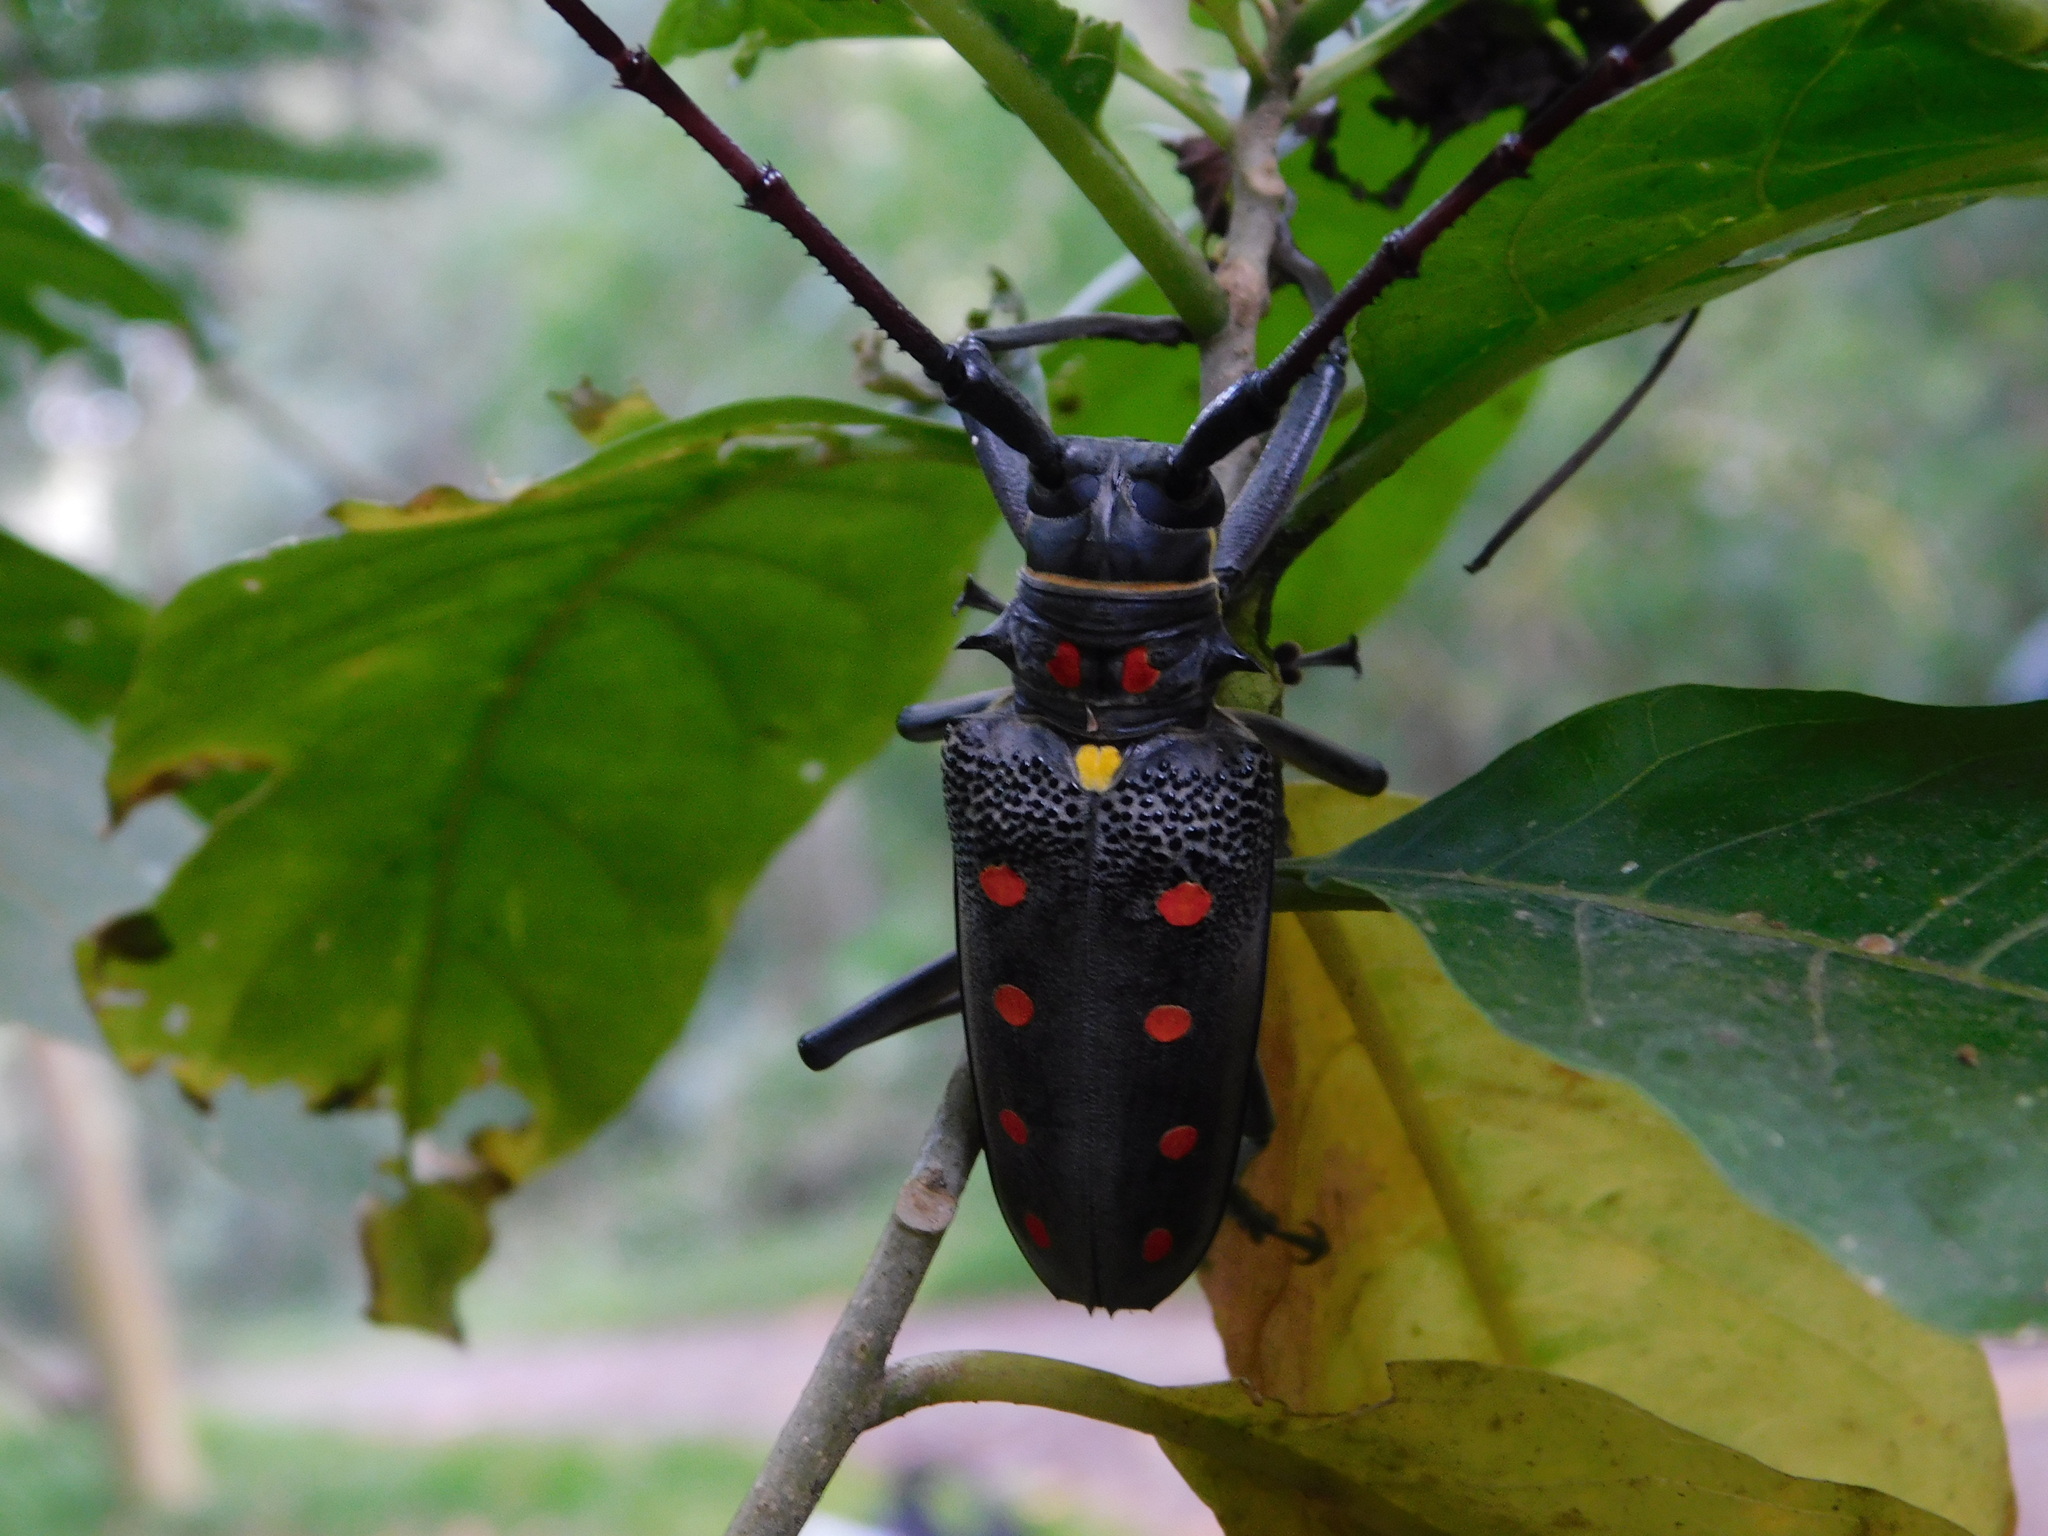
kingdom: Animalia
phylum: Arthropoda
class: Insecta
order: Coleoptera
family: Cerambycidae
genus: Batocera
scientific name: Batocera parryi
